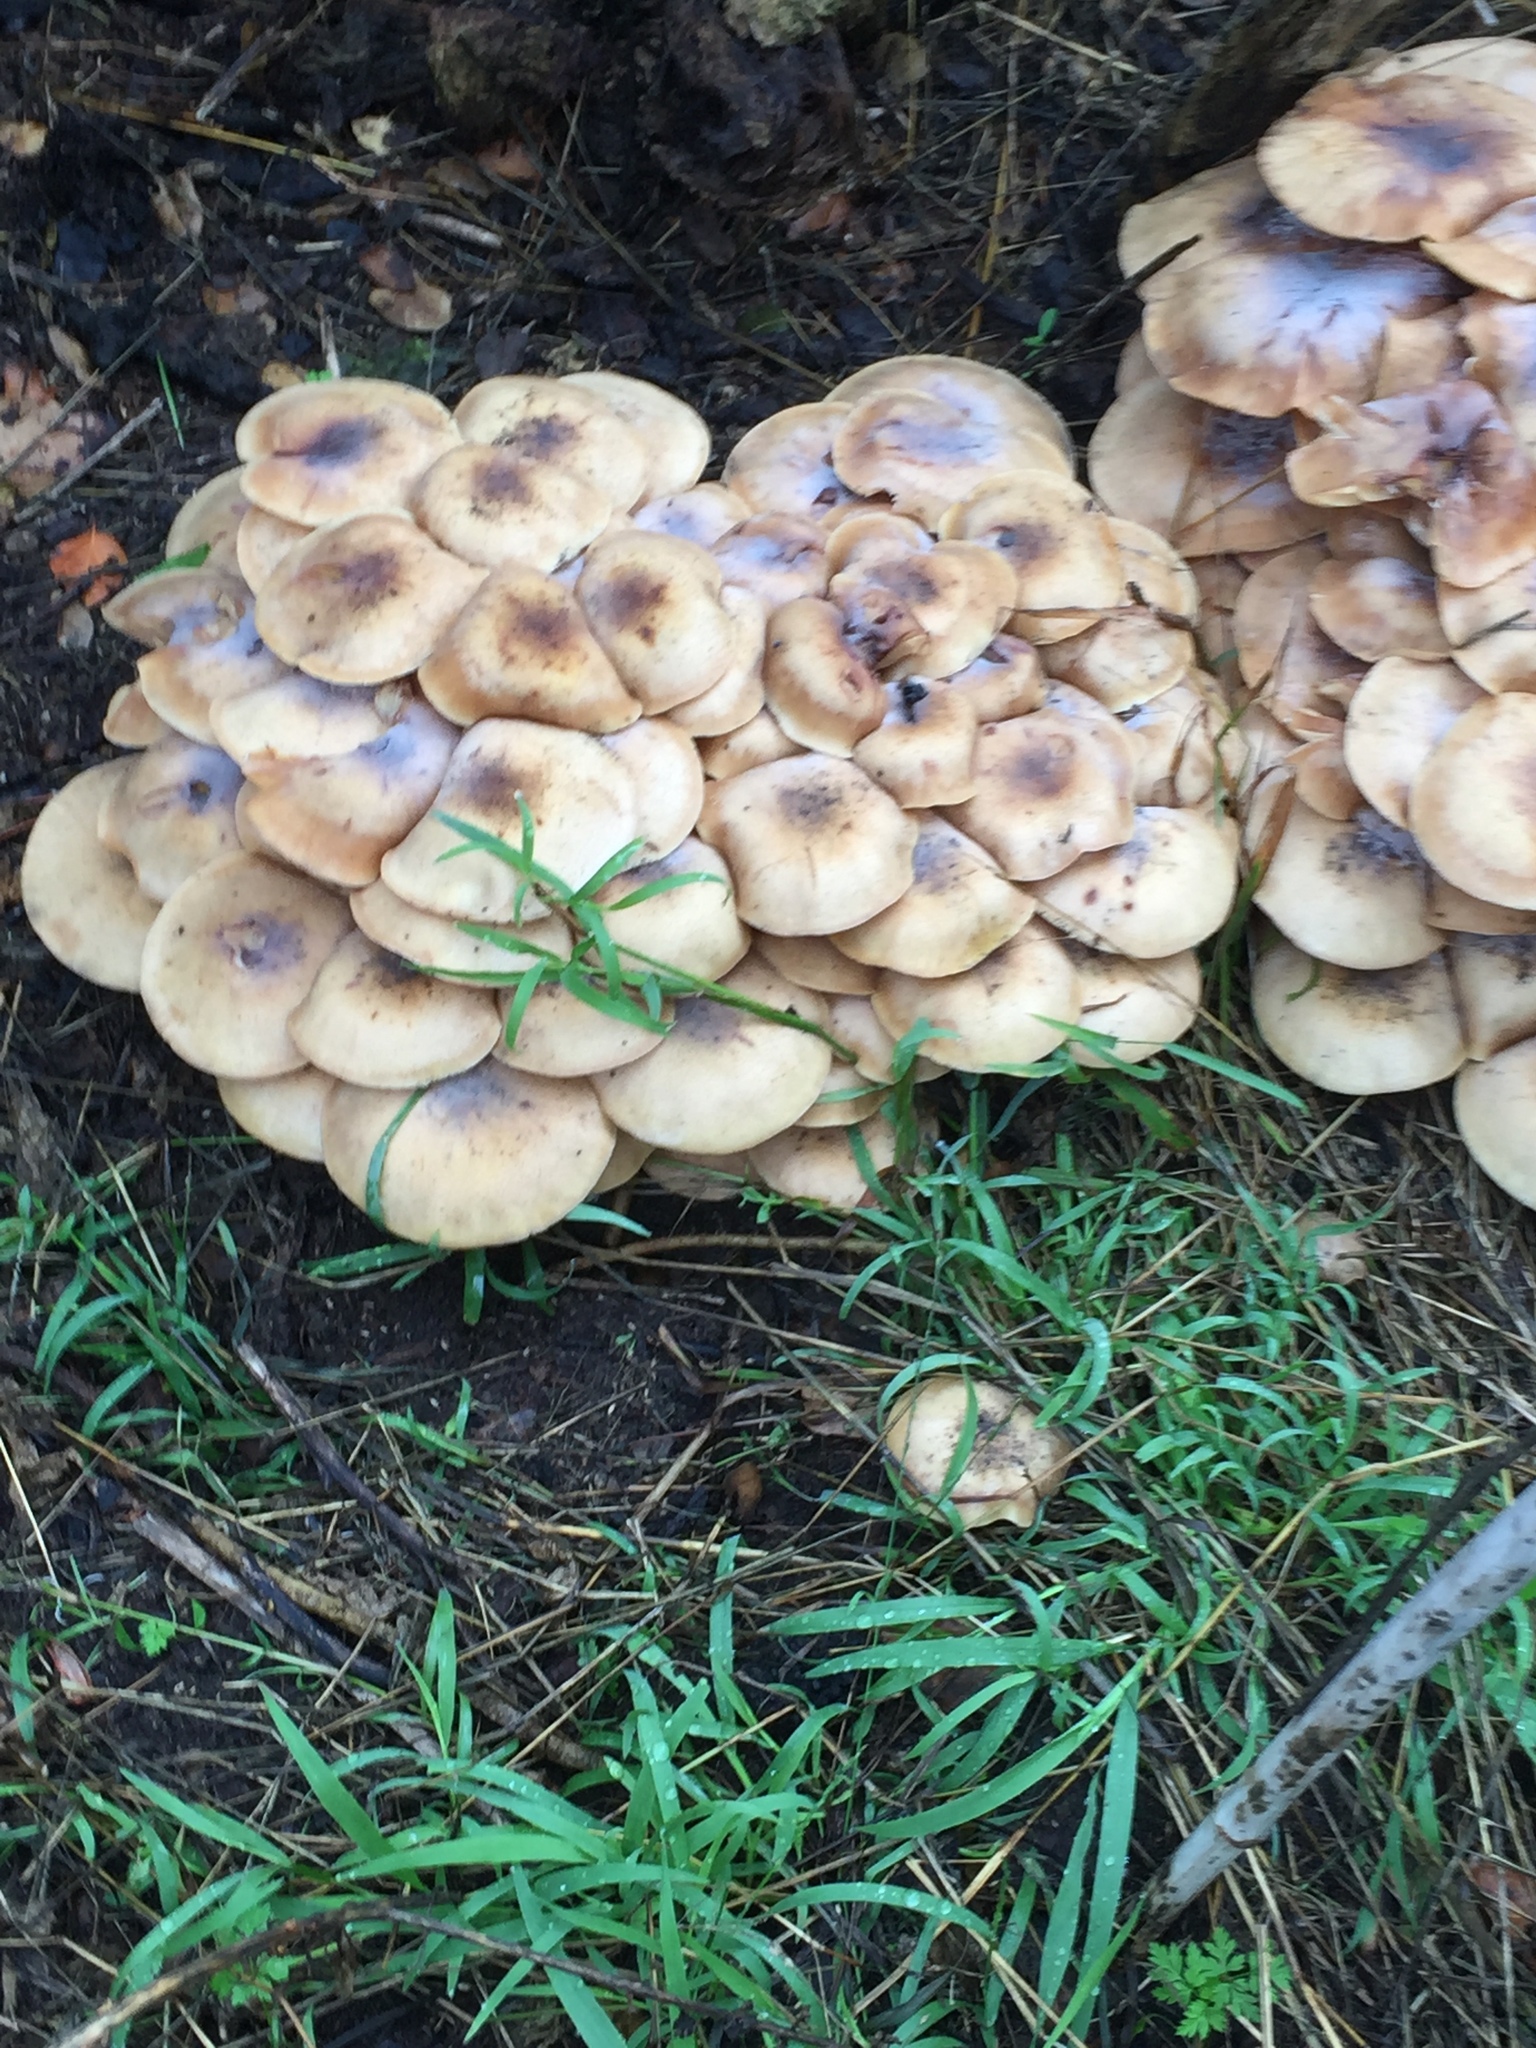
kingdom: Fungi
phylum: Basidiomycota
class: Agaricomycetes
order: Agaricales
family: Physalacriaceae
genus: Armillaria
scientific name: Armillaria mellea
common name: Honey fungus
